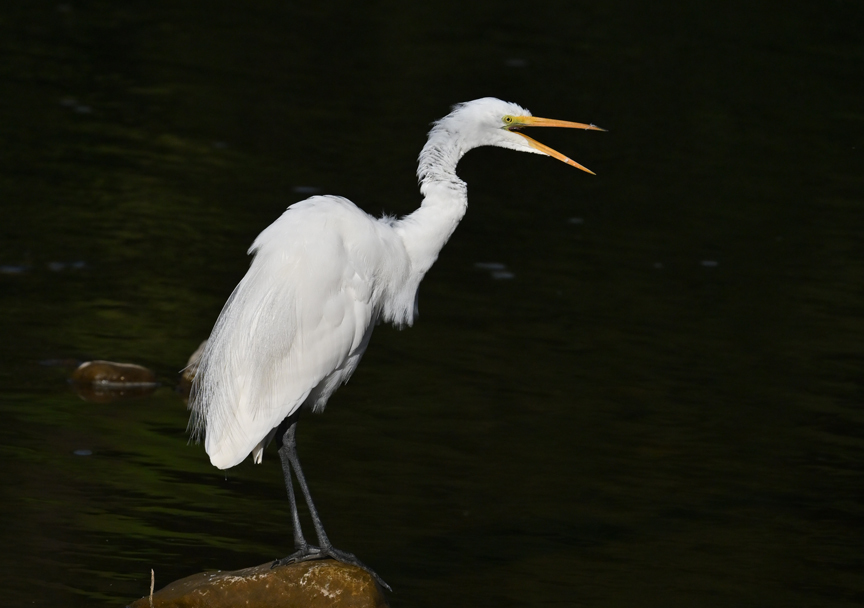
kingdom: Animalia
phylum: Chordata
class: Aves
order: Pelecaniformes
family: Ardeidae
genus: Ardea
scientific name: Ardea alba
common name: Great egret
